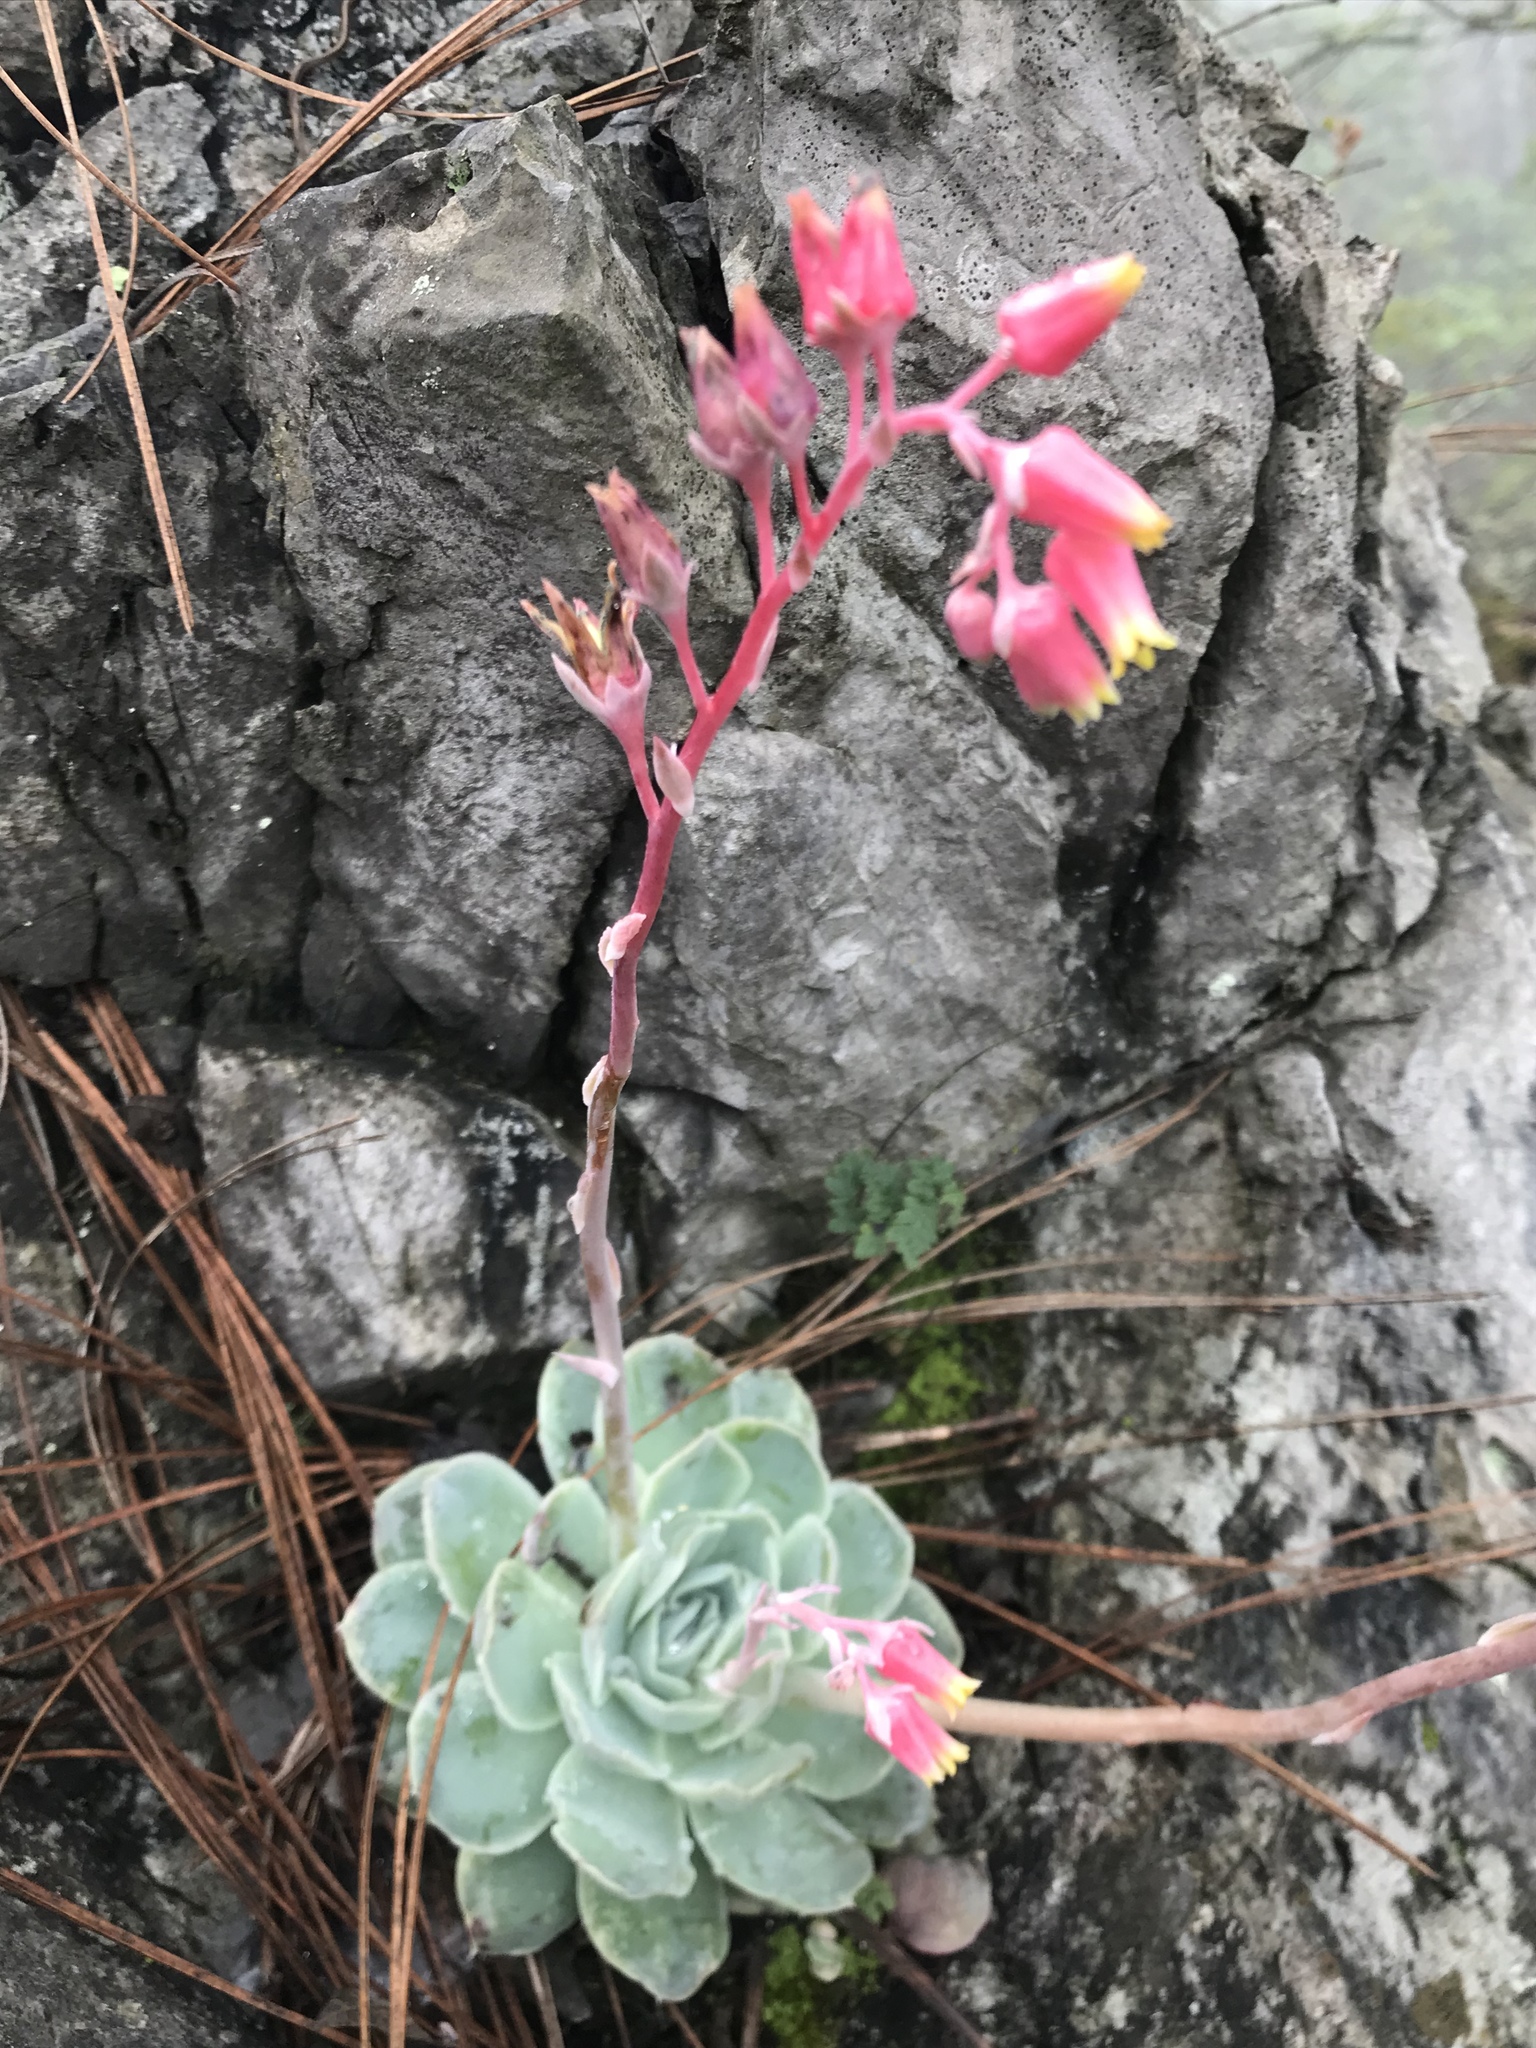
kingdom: Plantae
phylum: Tracheophyta
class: Magnoliopsida
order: Saxifragales
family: Crassulaceae
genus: Echeveria
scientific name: Echeveria simulans
